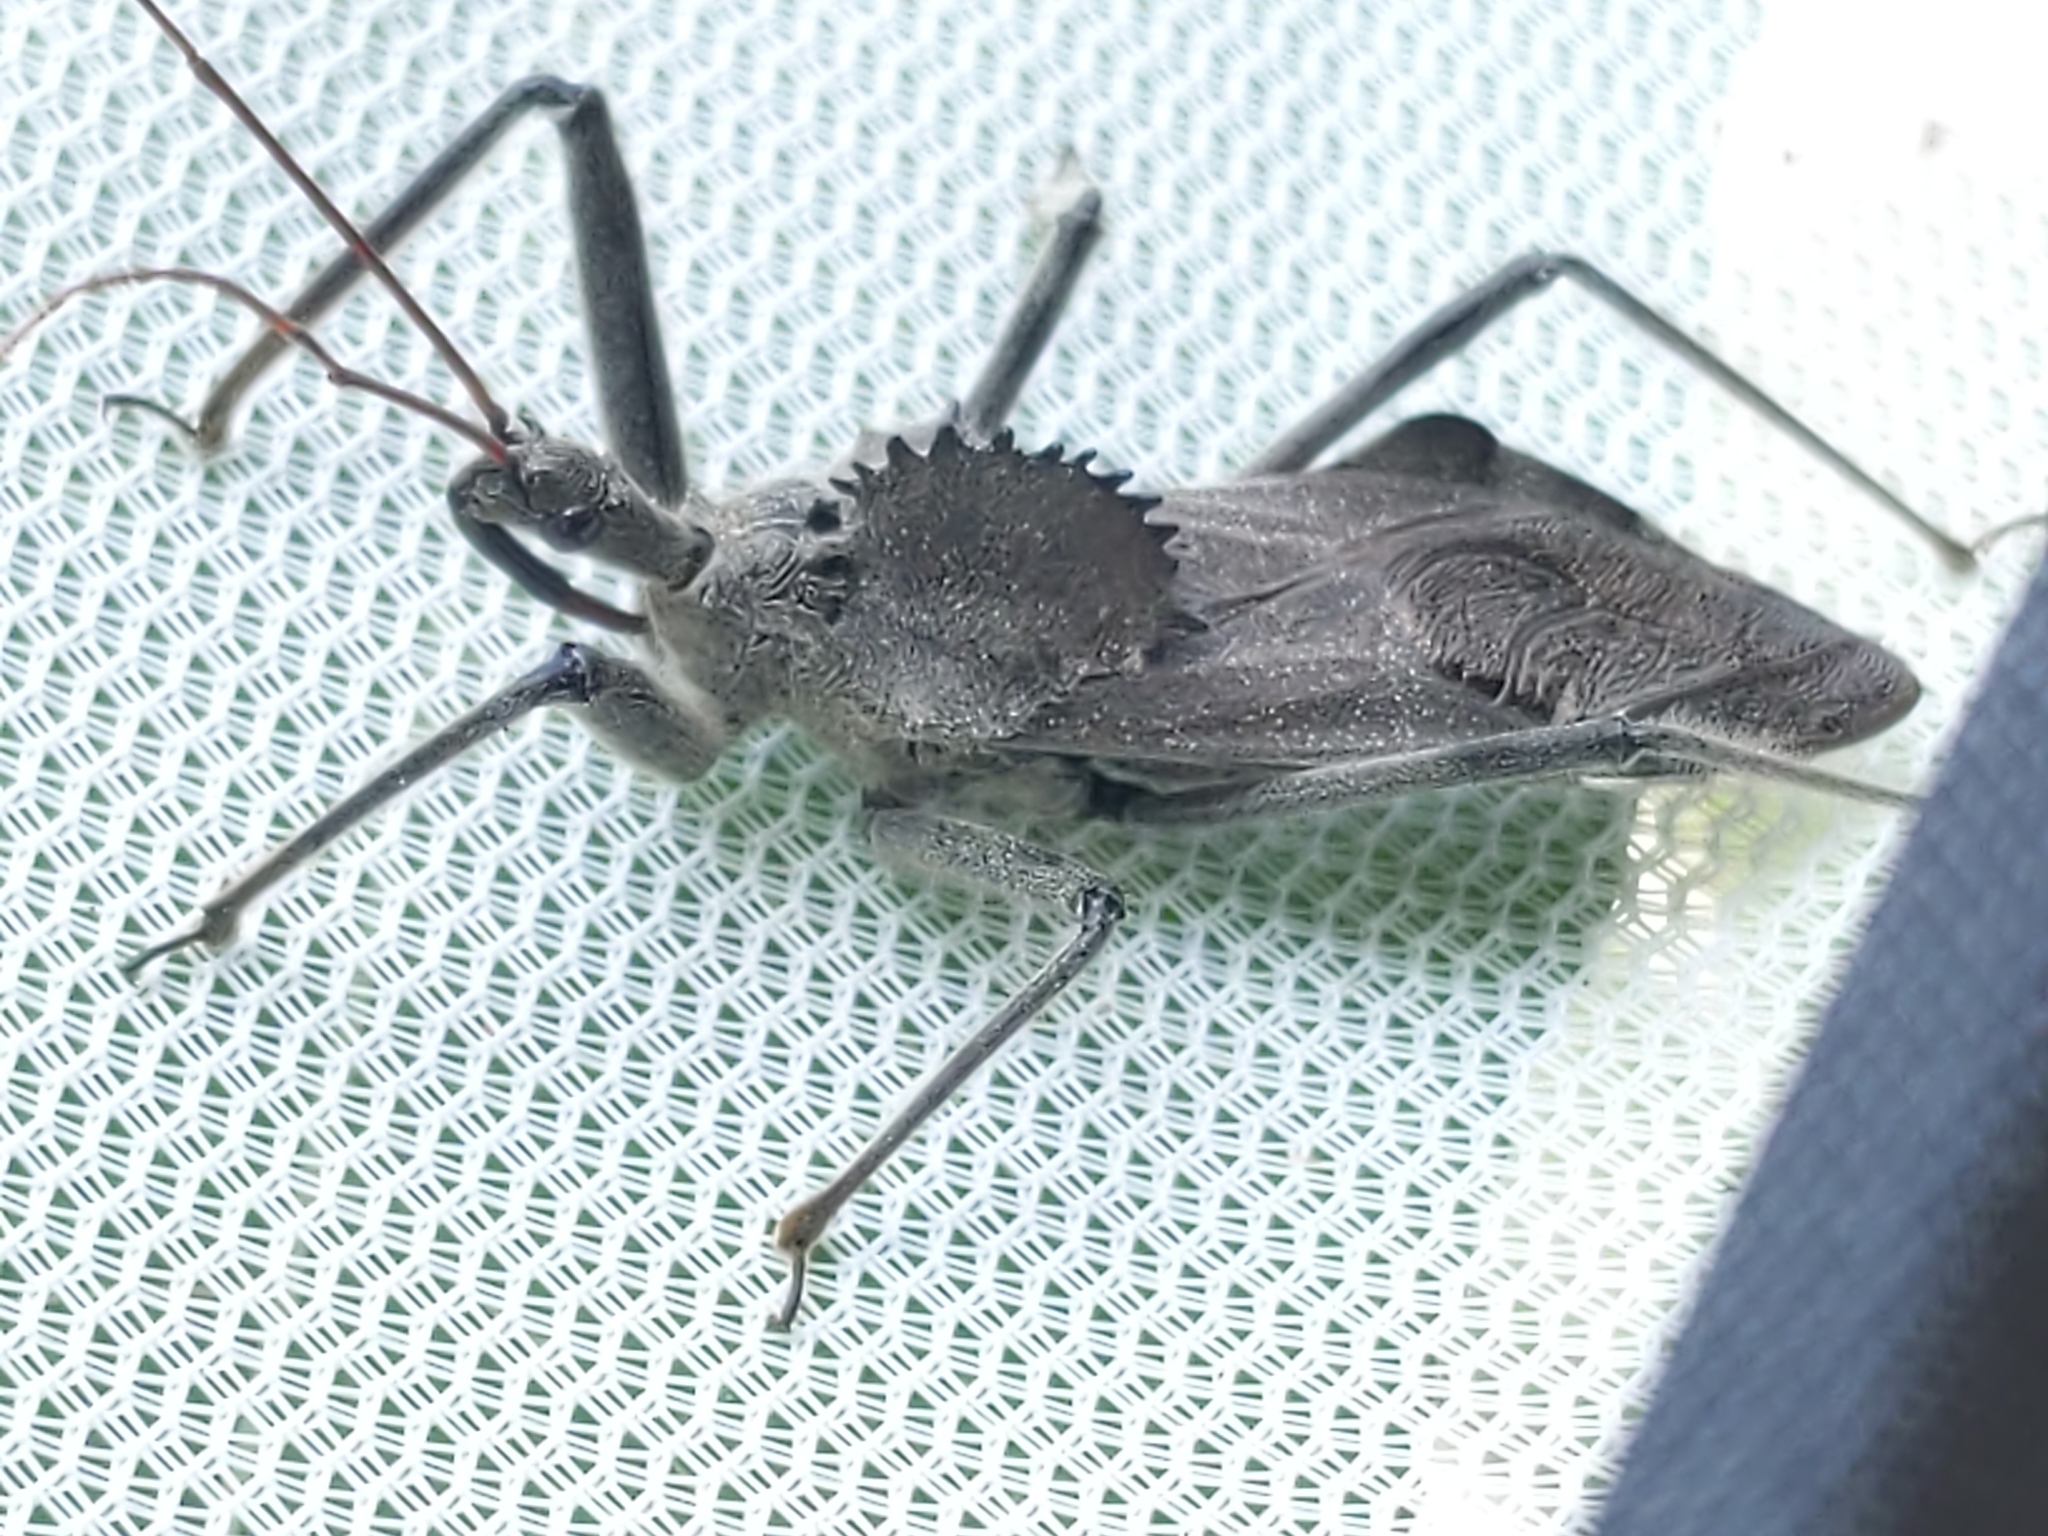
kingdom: Animalia
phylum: Arthropoda
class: Insecta
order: Hemiptera
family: Reduviidae
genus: Arilus
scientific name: Arilus cristatus
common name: North american wheel bug
